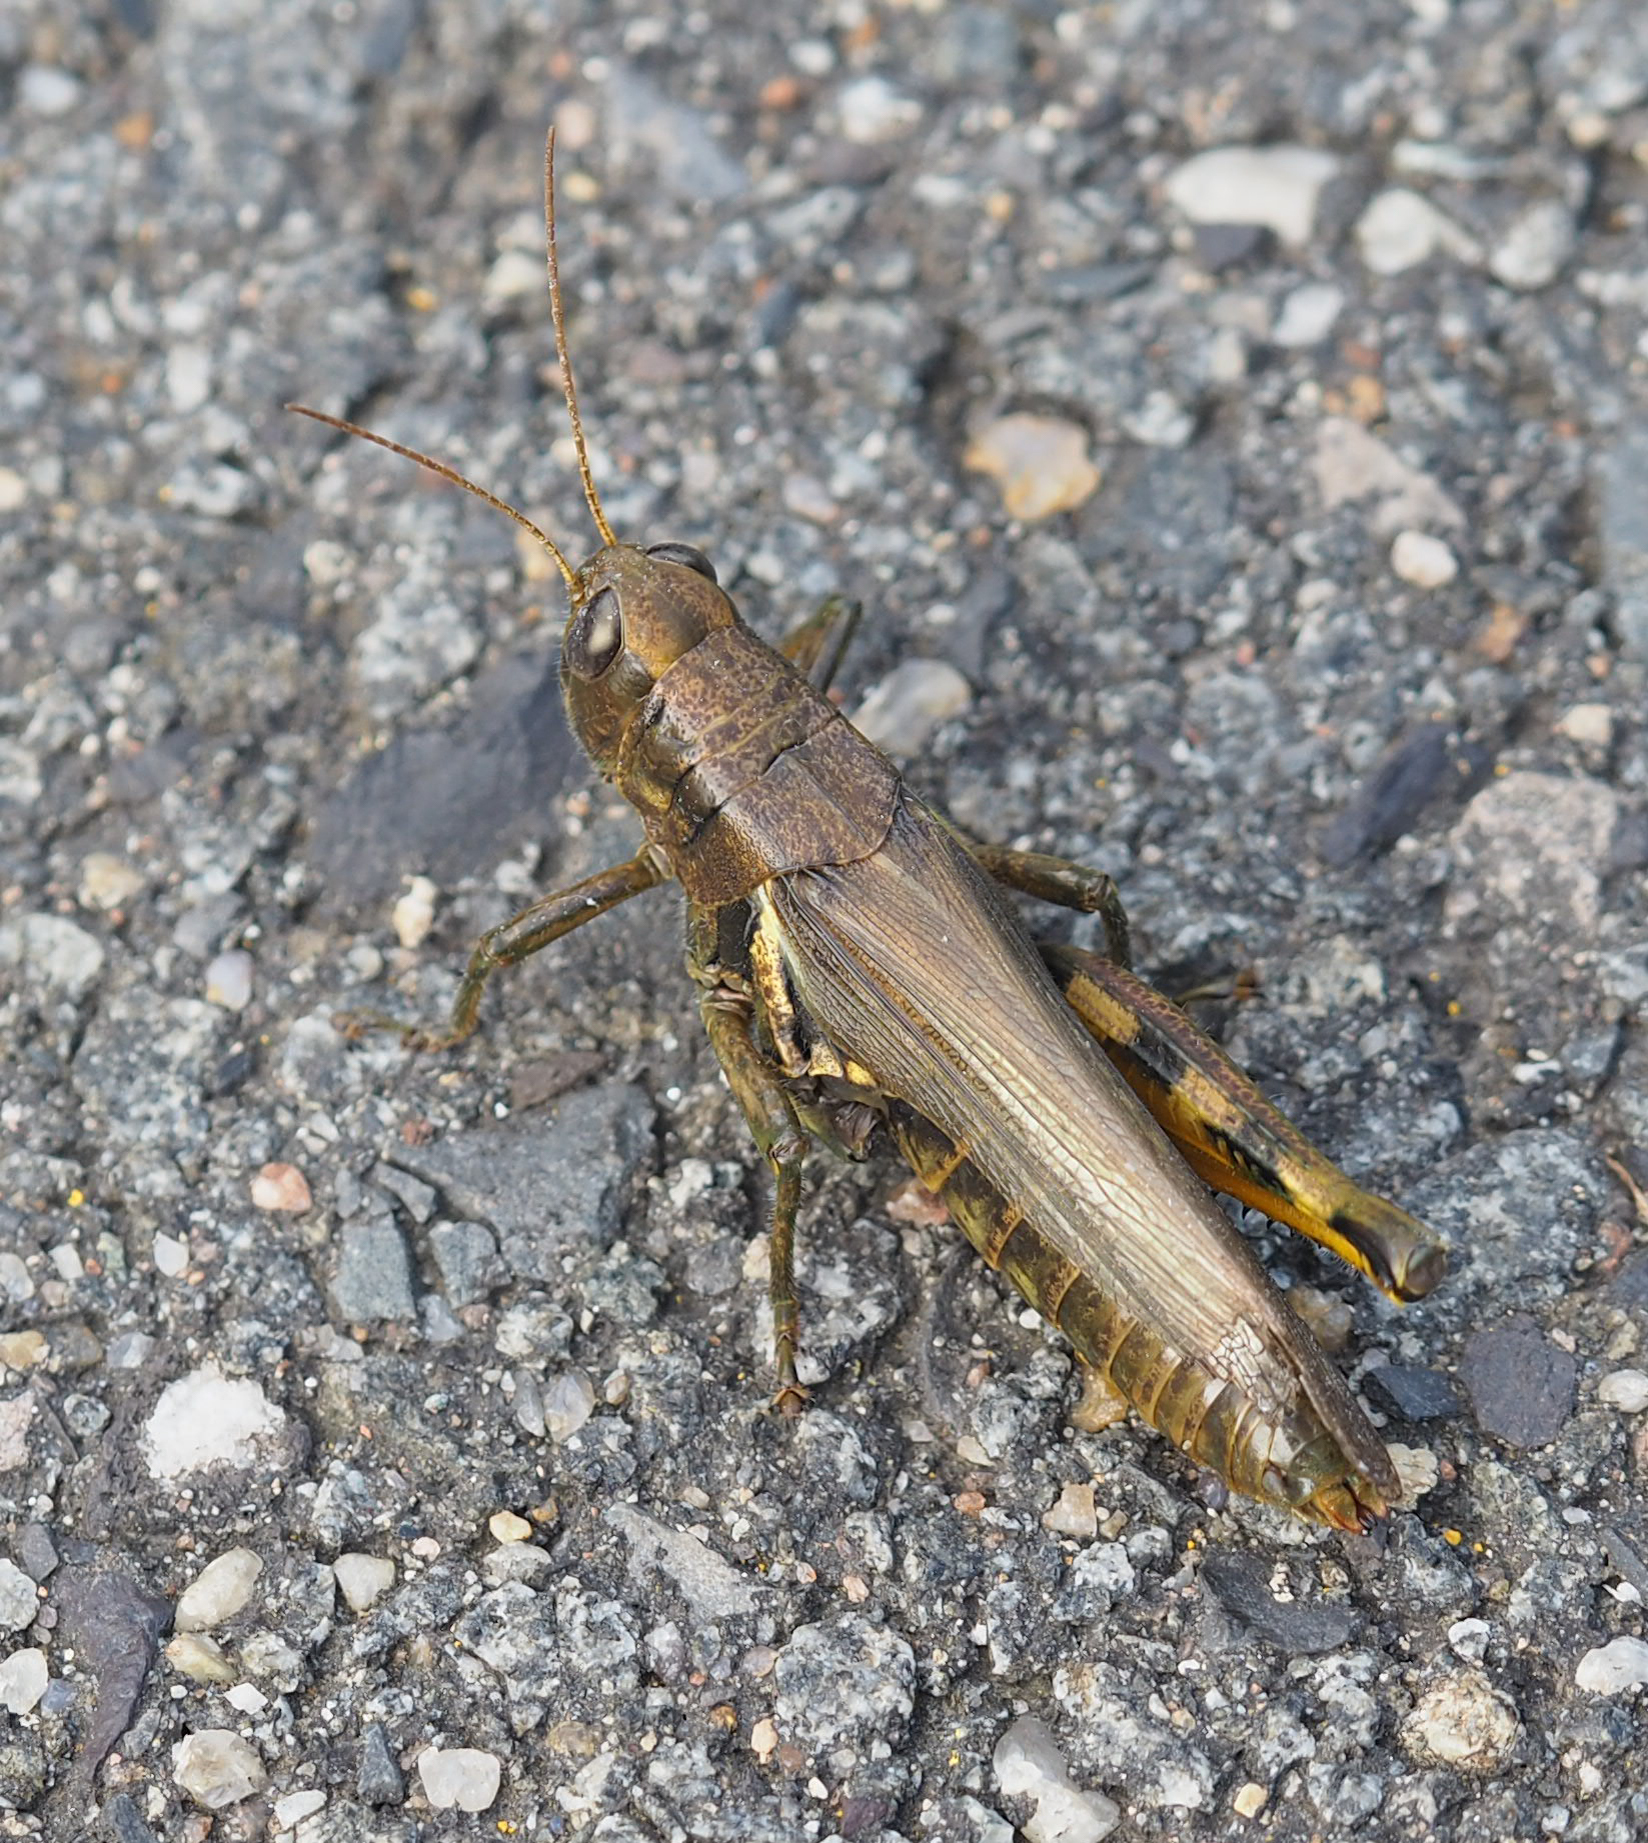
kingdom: Animalia
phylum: Arthropoda
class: Insecta
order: Orthoptera
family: Acrididae
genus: Melanoplus
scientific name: Melanoplus differentialis
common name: Differential grasshopper
